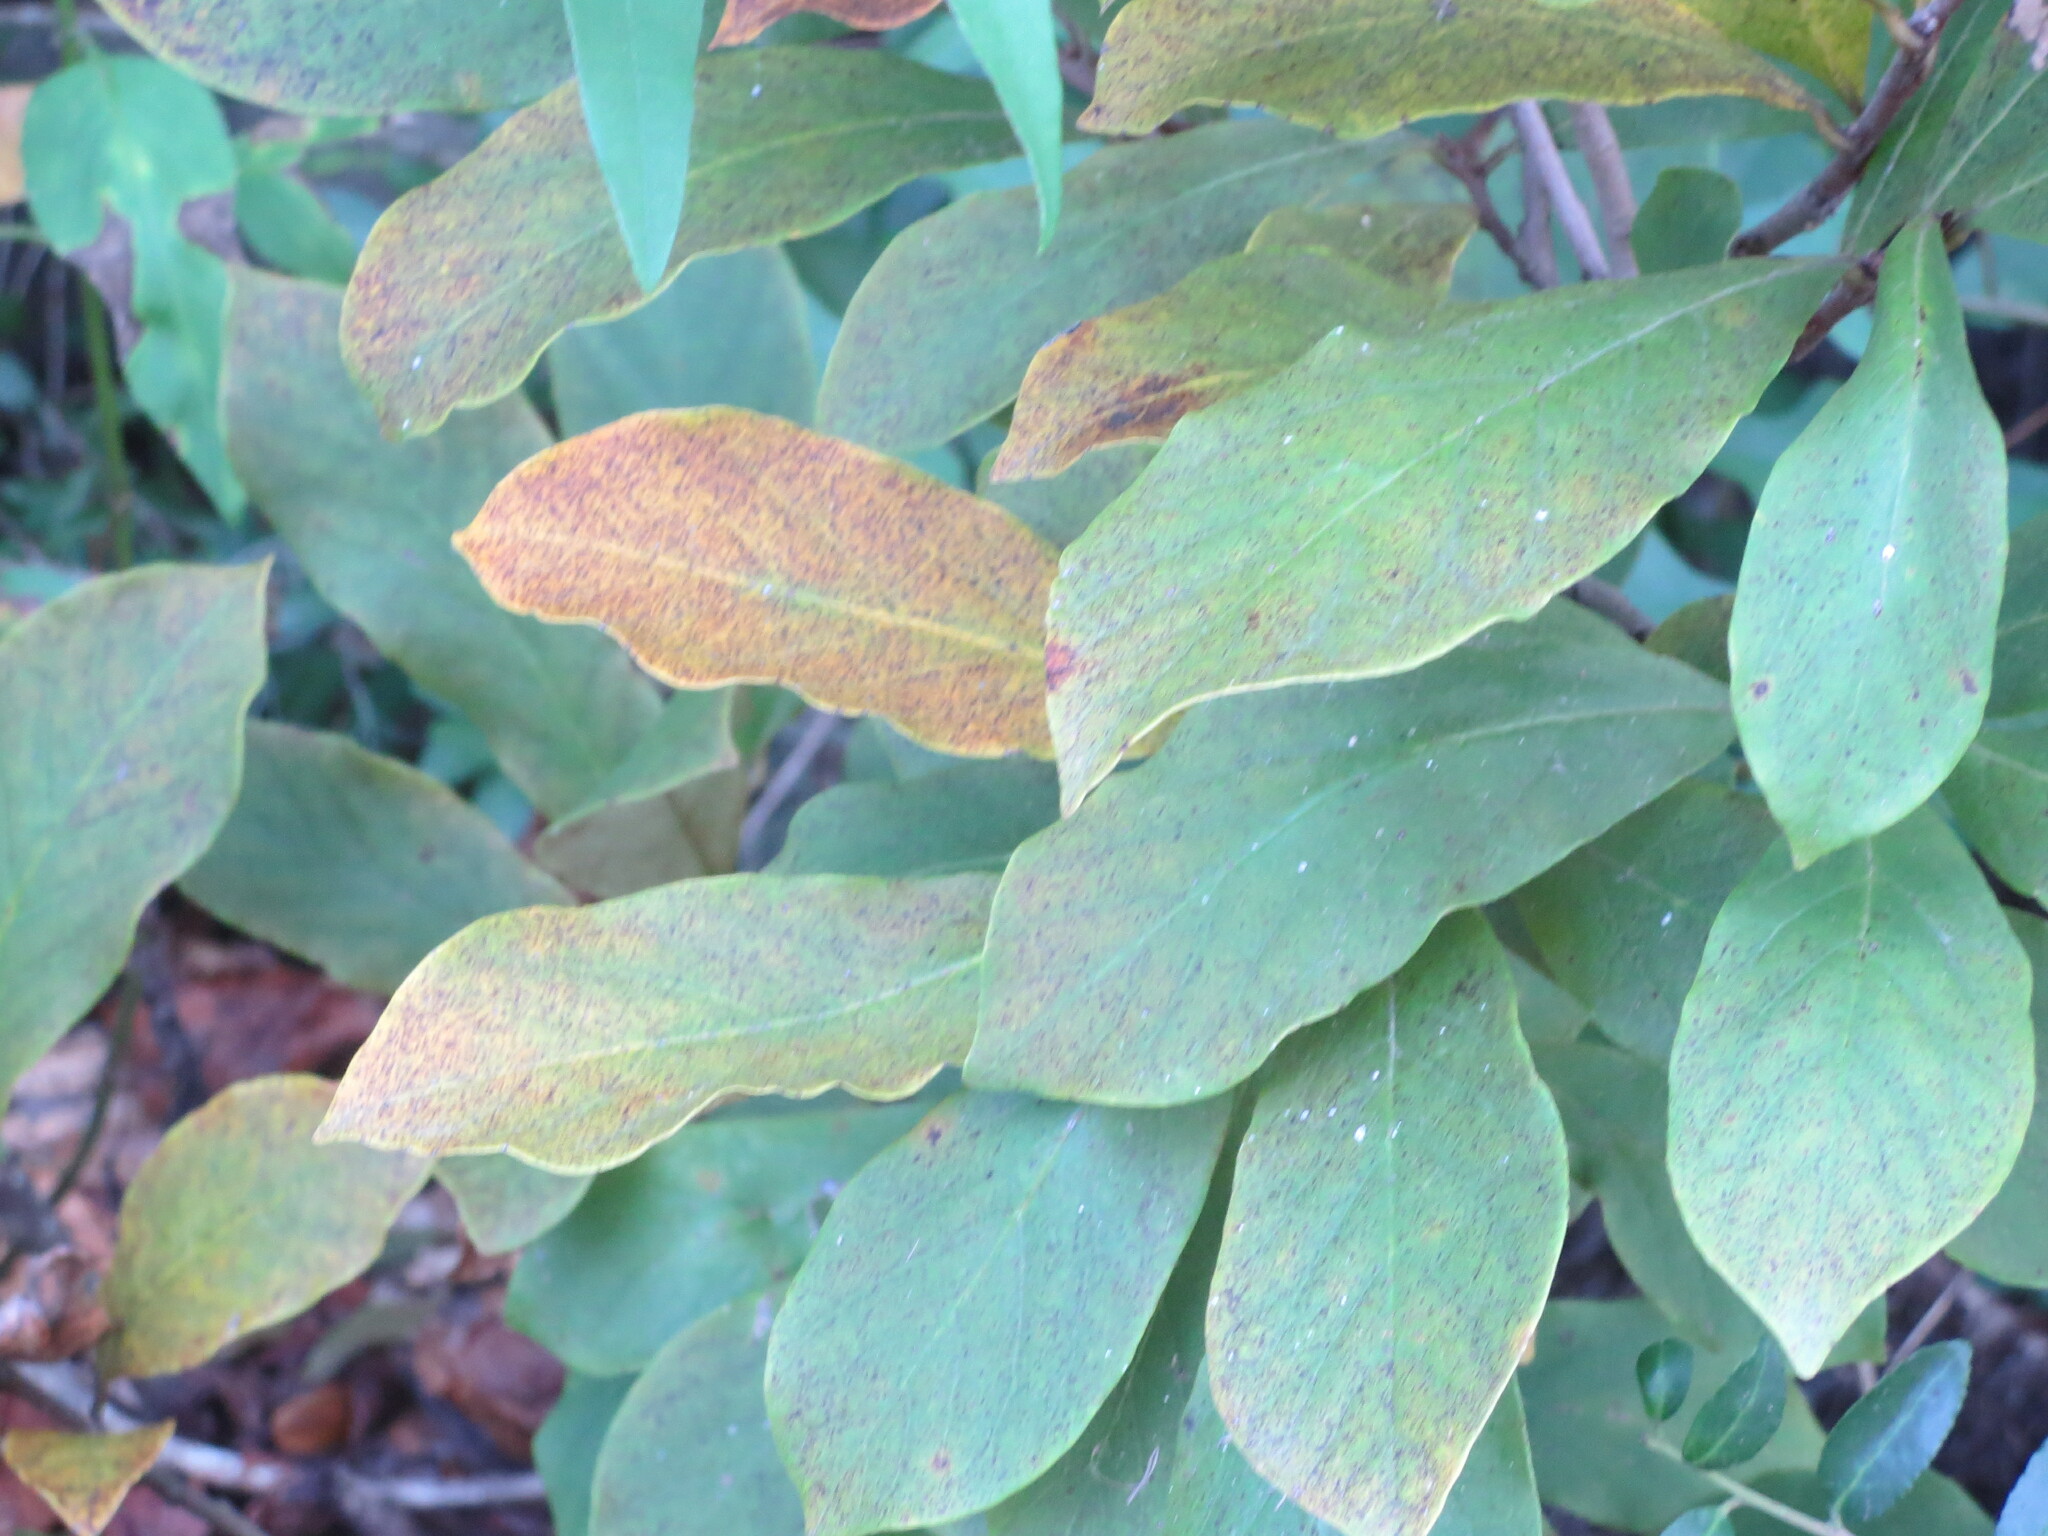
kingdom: Plantae
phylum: Tracheophyta
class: Magnoliopsida
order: Magnoliales
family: Annonaceae
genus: Asimina
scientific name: Asimina parviflora
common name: Dwarf pawpaw
